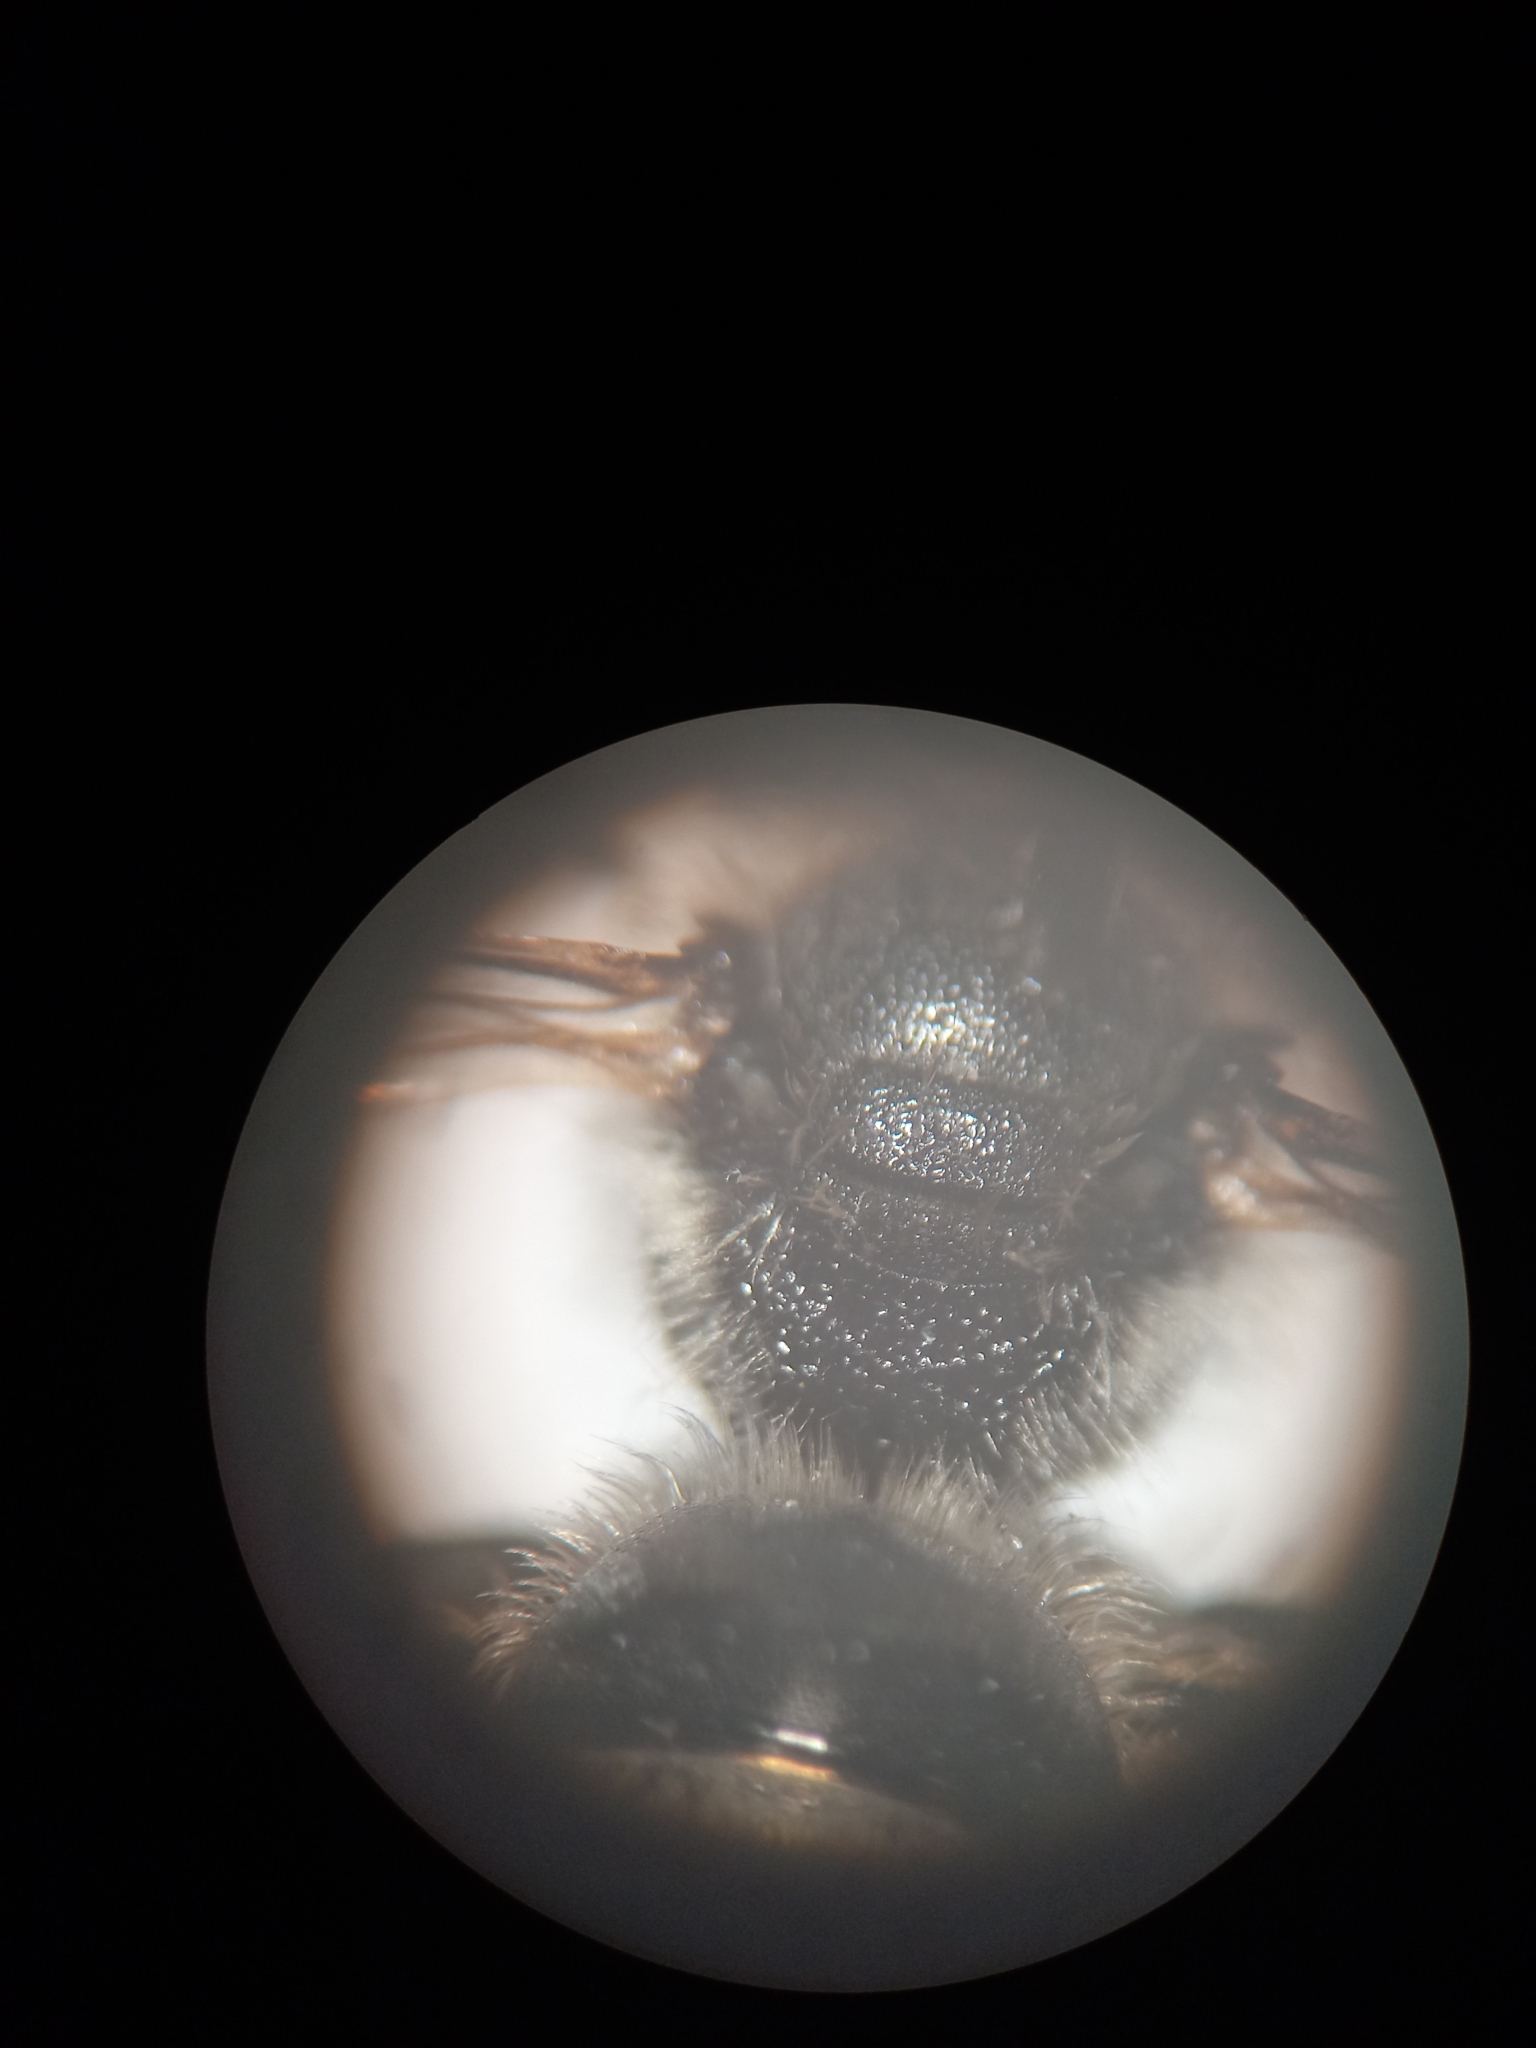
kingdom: Animalia
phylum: Arthropoda
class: Insecta
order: Hymenoptera
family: Halictidae
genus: Lasioglossum
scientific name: Lasioglossum leucozonium
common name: White-zoned furrow bee
